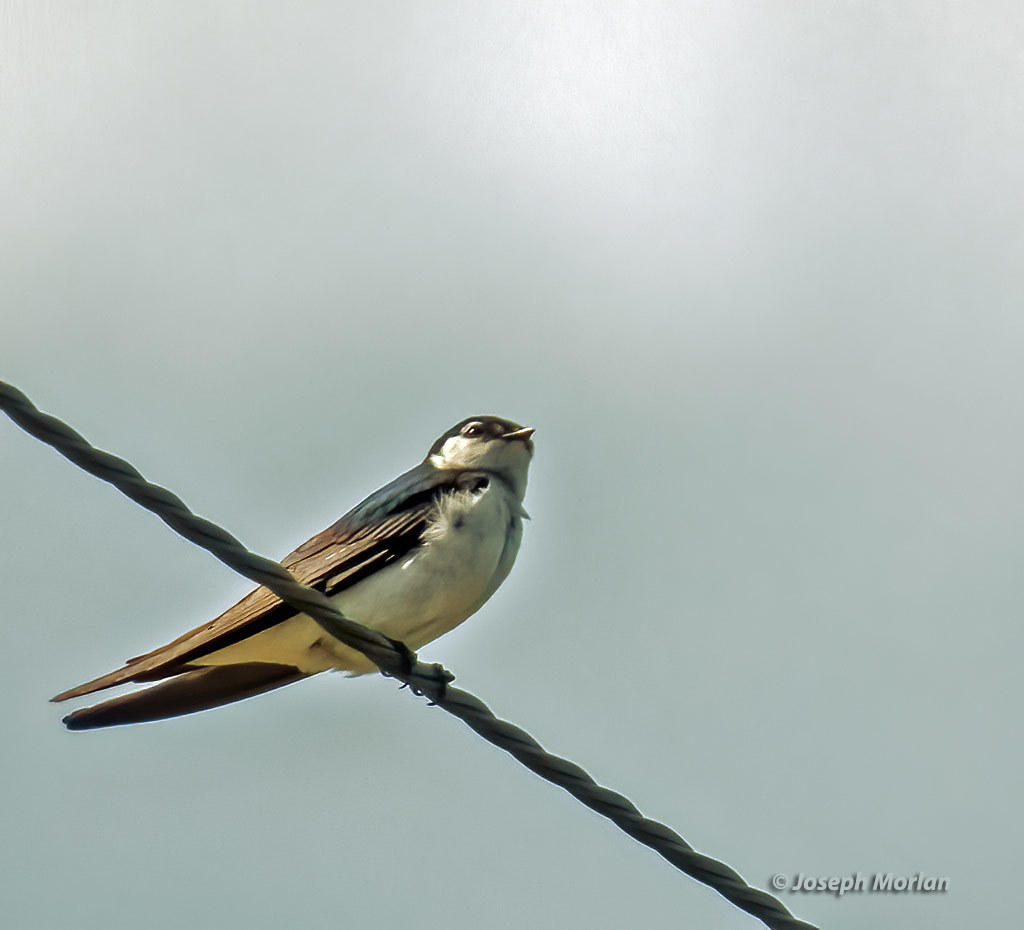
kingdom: Animalia
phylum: Chordata
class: Aves
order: Passeriformes
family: Hirundinidae
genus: Tachycineta
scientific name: Tachycineta thalassina
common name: Violet-green swallow
